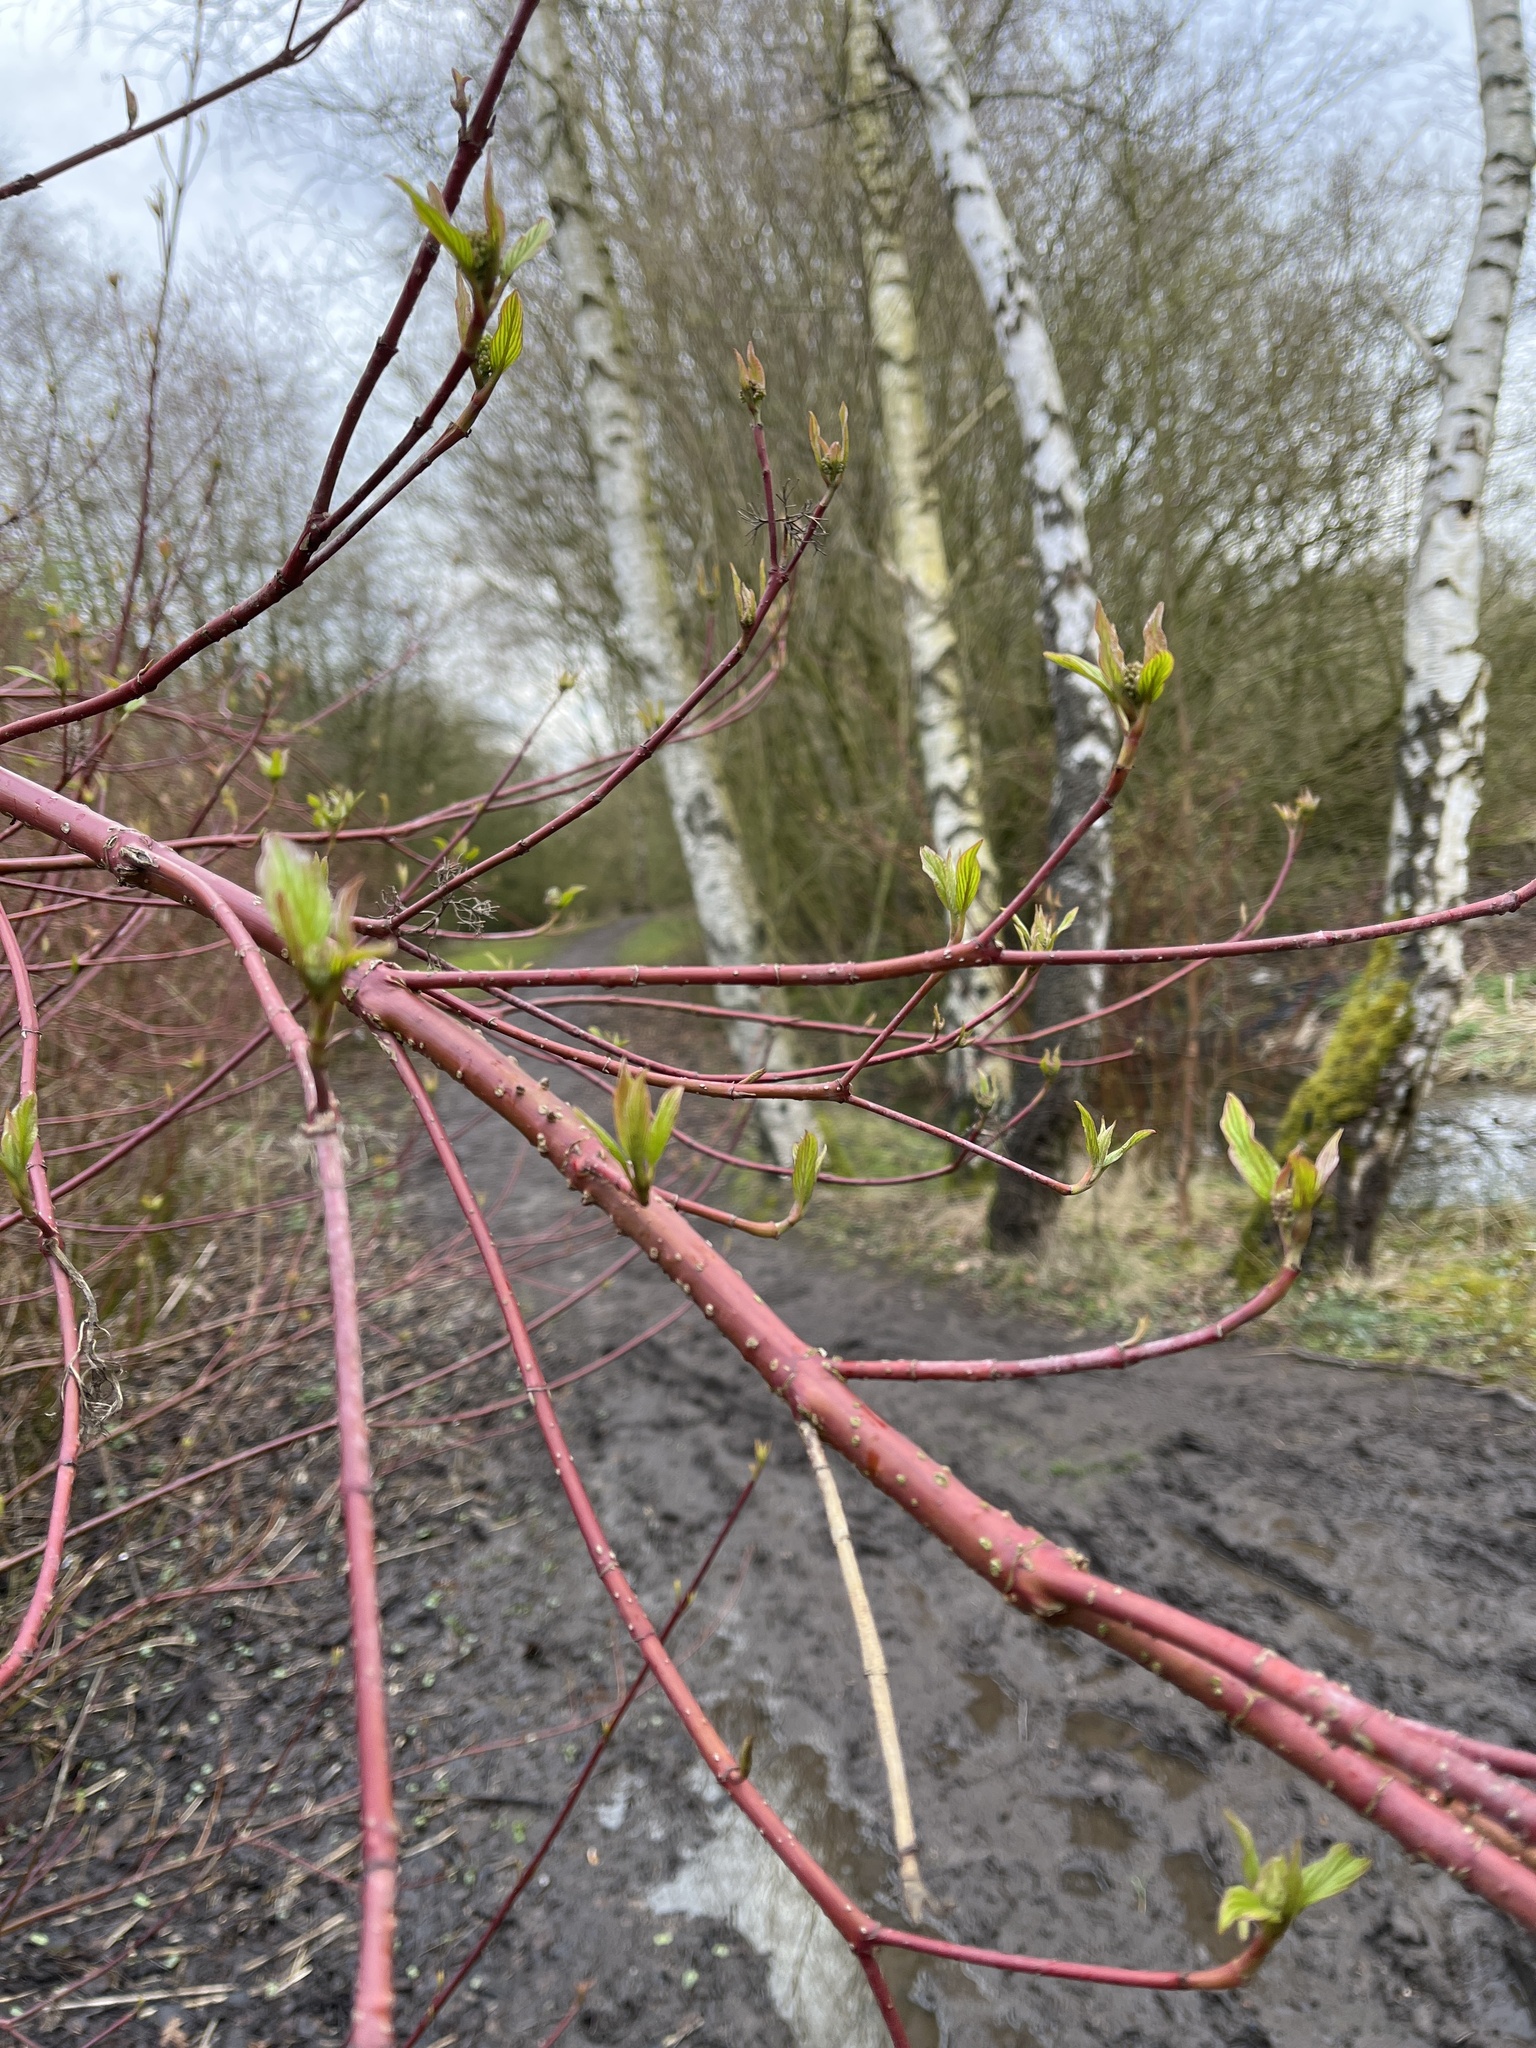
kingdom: Plantae
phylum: Tracheophyta
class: Magnoliopsida
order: Cornales
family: Cornaceae
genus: Cornus
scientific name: Cornus sericea
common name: Red-osier dogwood
